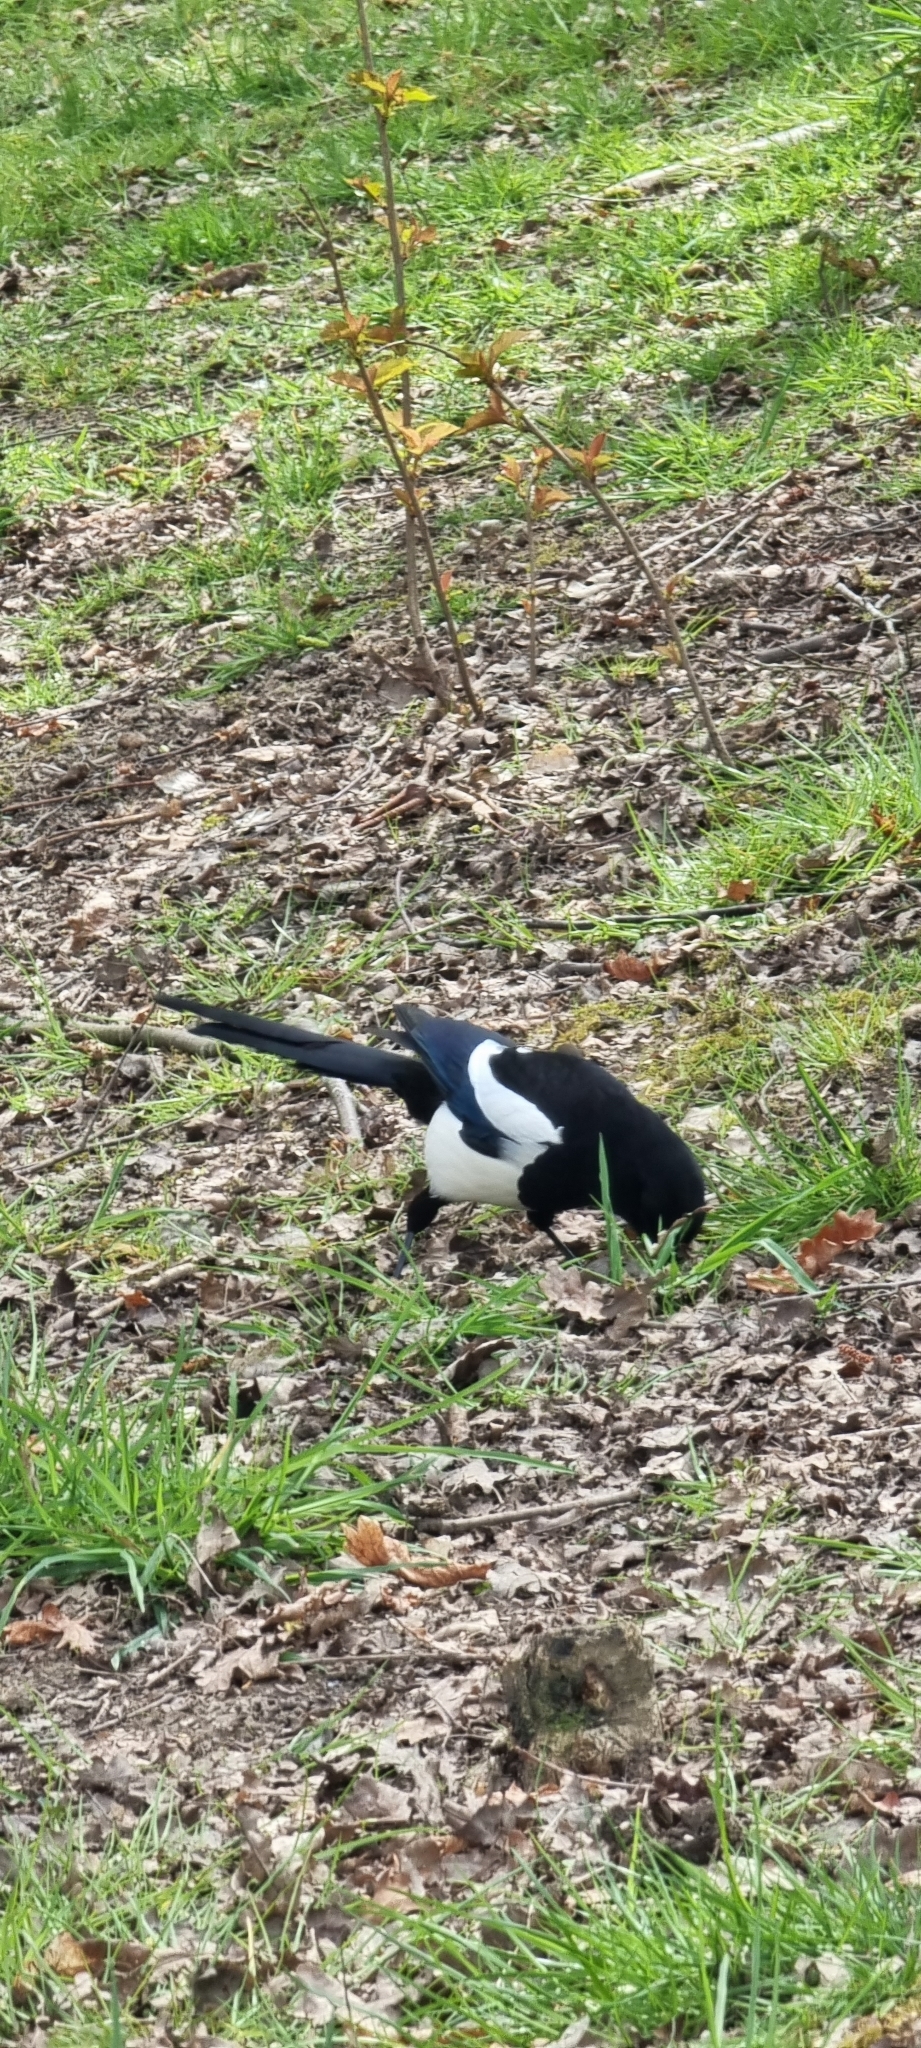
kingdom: Animalia
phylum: Chordata
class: Aves
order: Passeriformes
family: Corvidae
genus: Pica
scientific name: Pica pica
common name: Eurasian magpie
